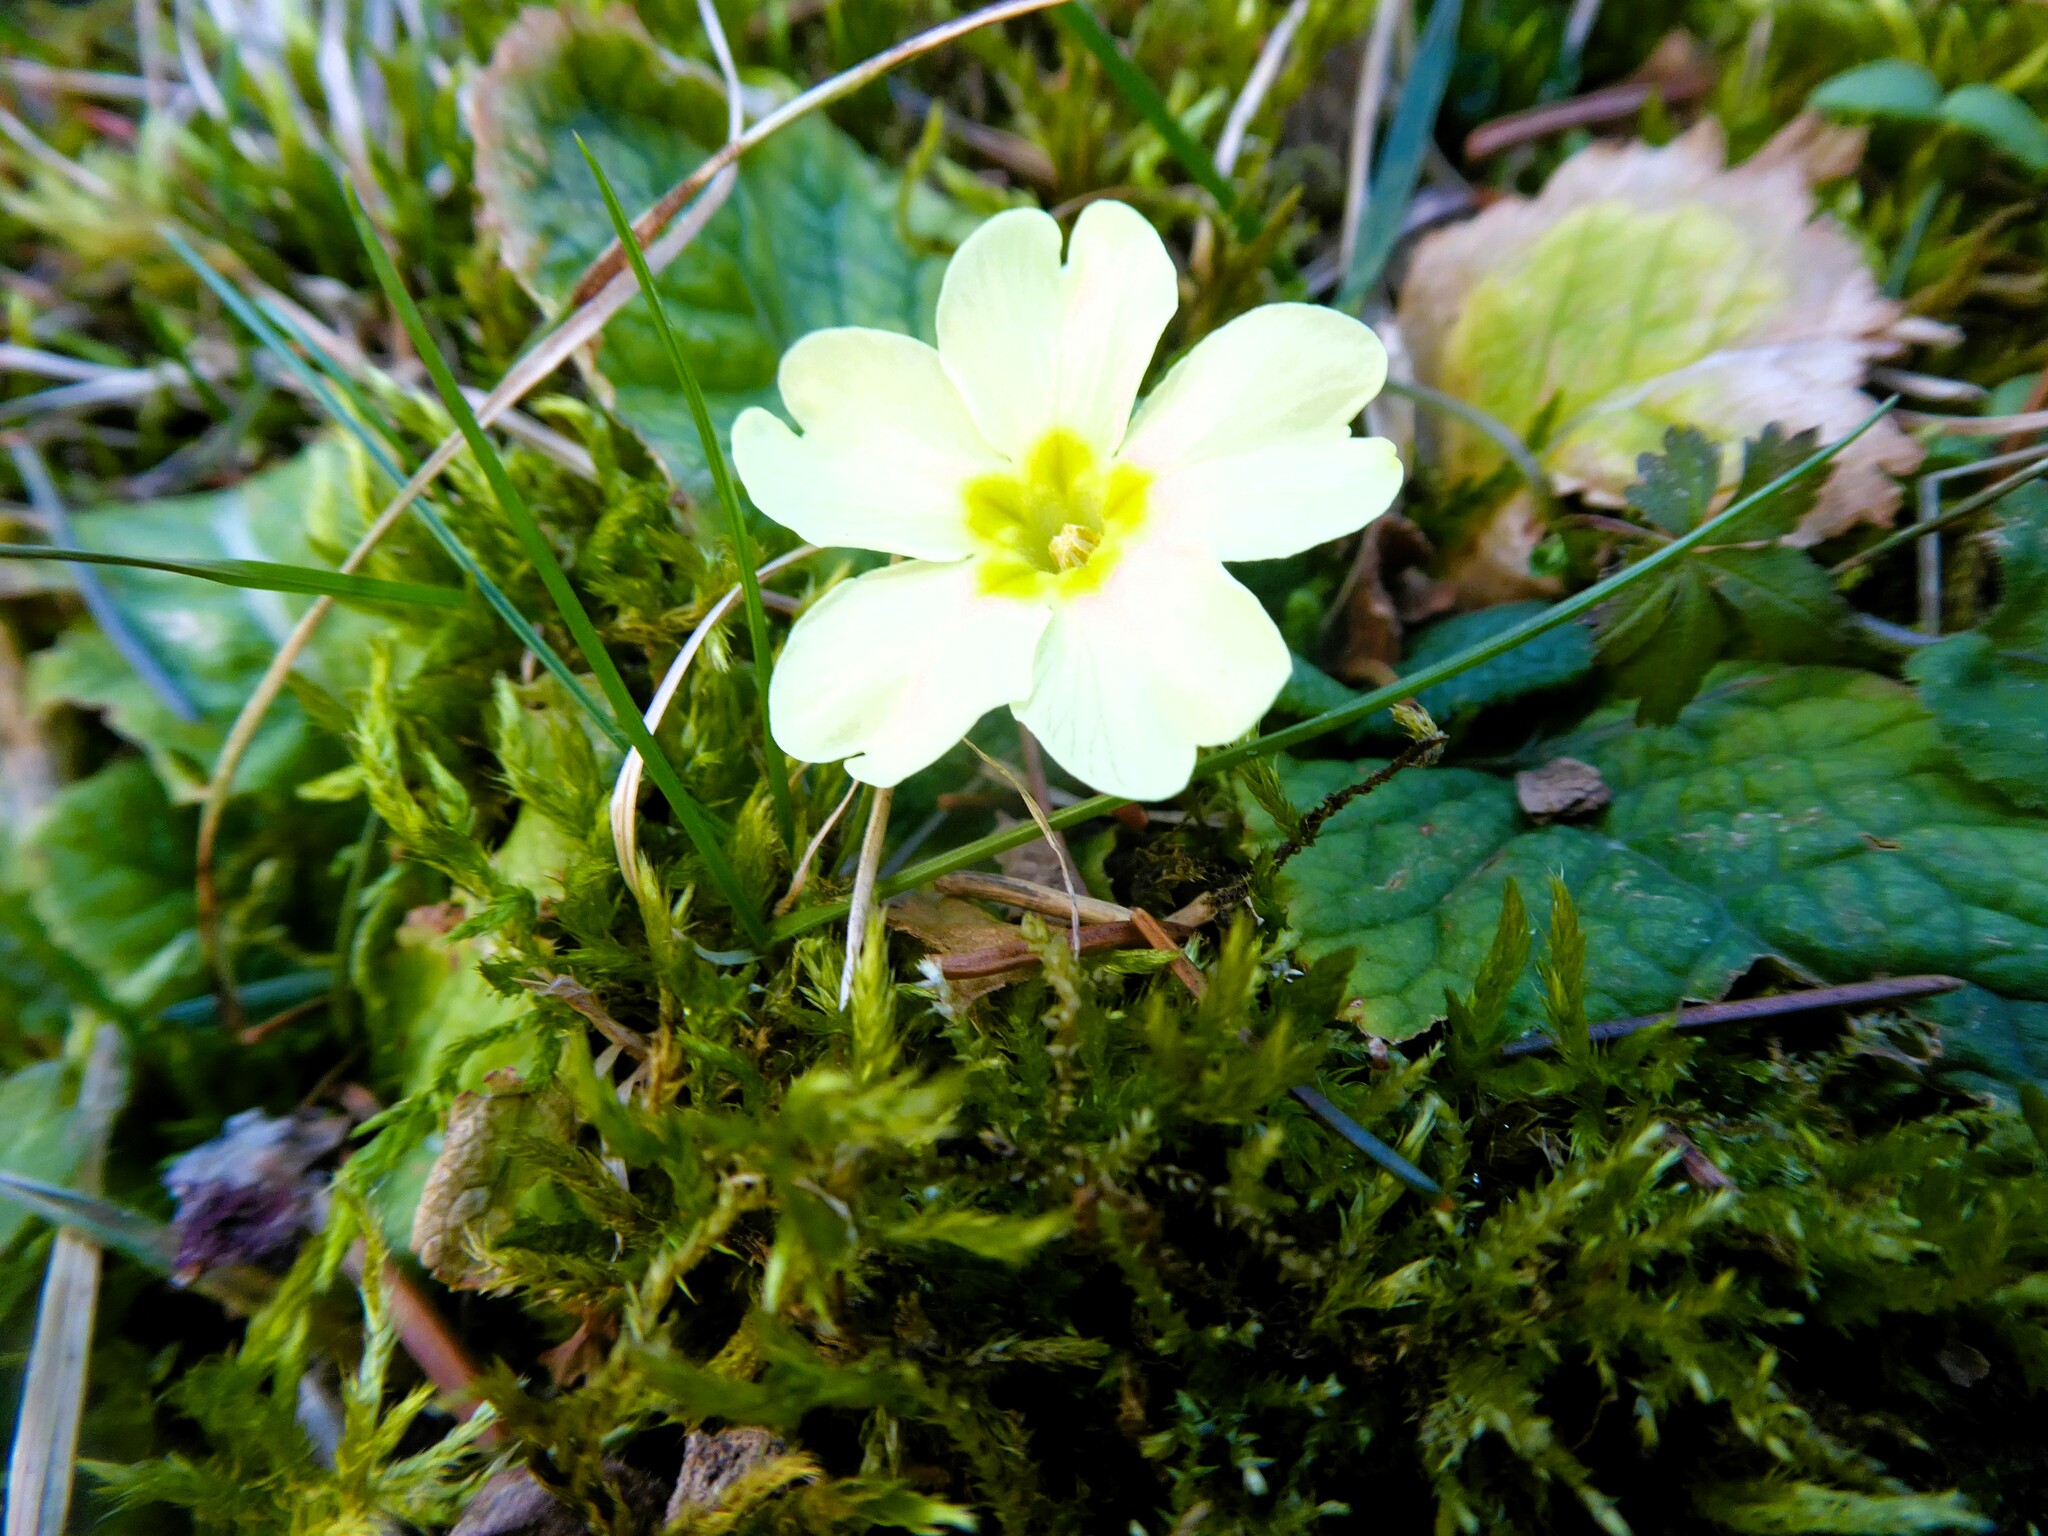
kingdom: Plantae
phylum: Tracheophyta
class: Magnoliopsida
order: Ericales
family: Primulaceae
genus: Primula
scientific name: Primula vulgaris
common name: Primrose
